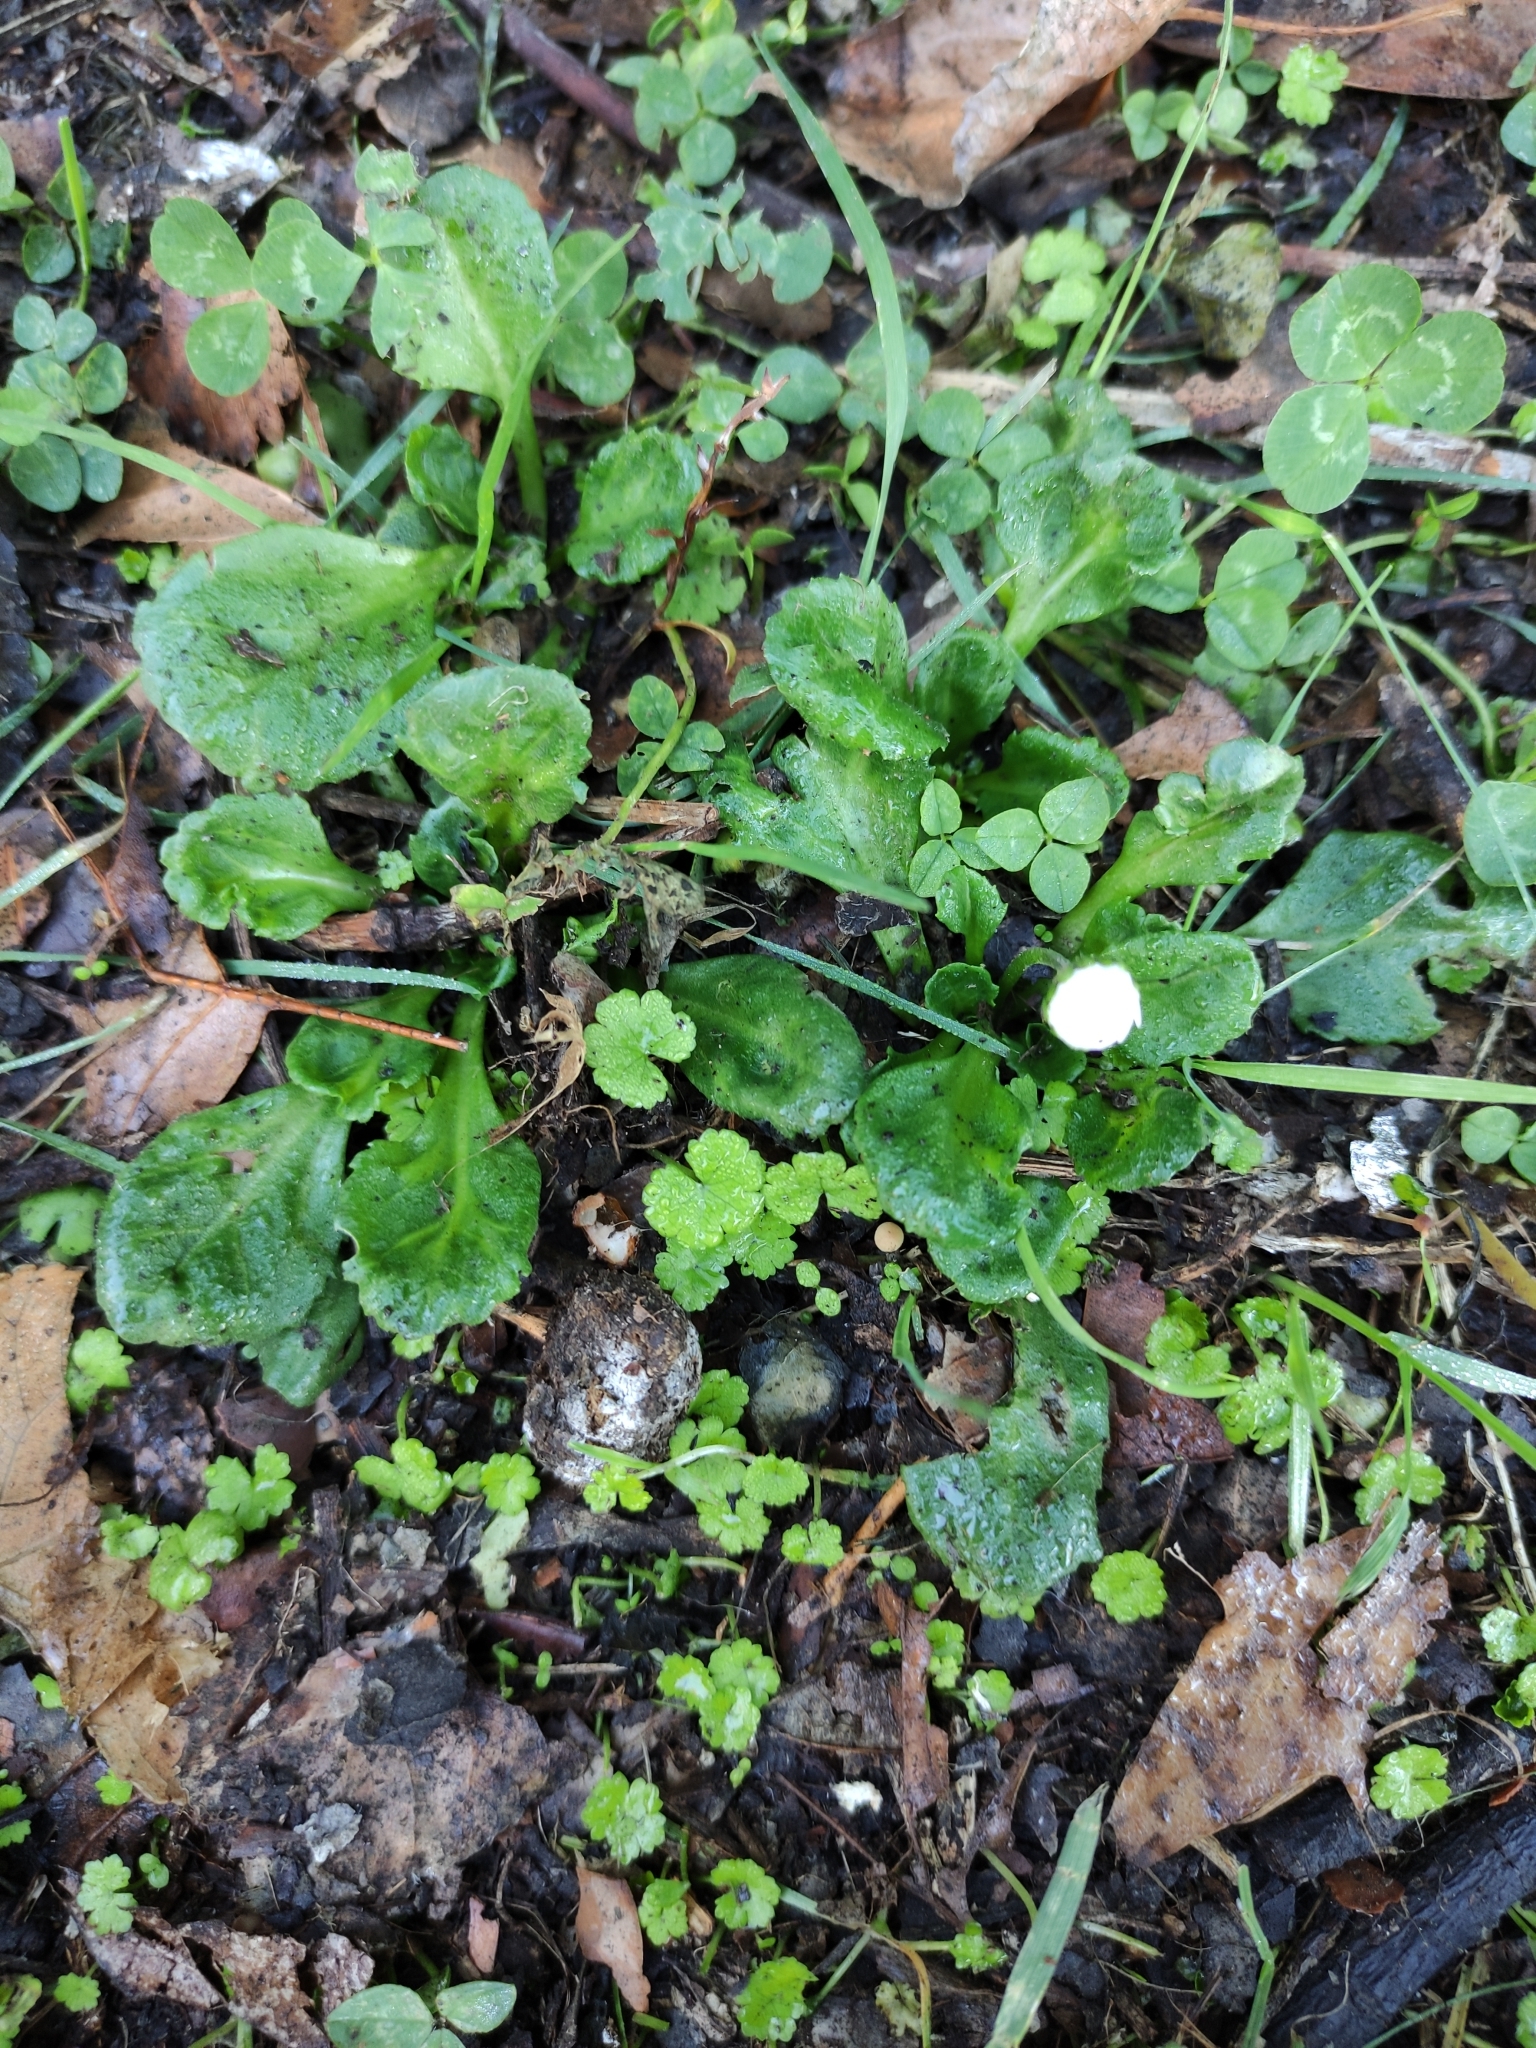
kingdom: Plantae
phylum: Tracheophyta
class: Magnoliopsida
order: Asterales
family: Asteraceae
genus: Bellis
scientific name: Bellis perennis
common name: Lawndaisy
